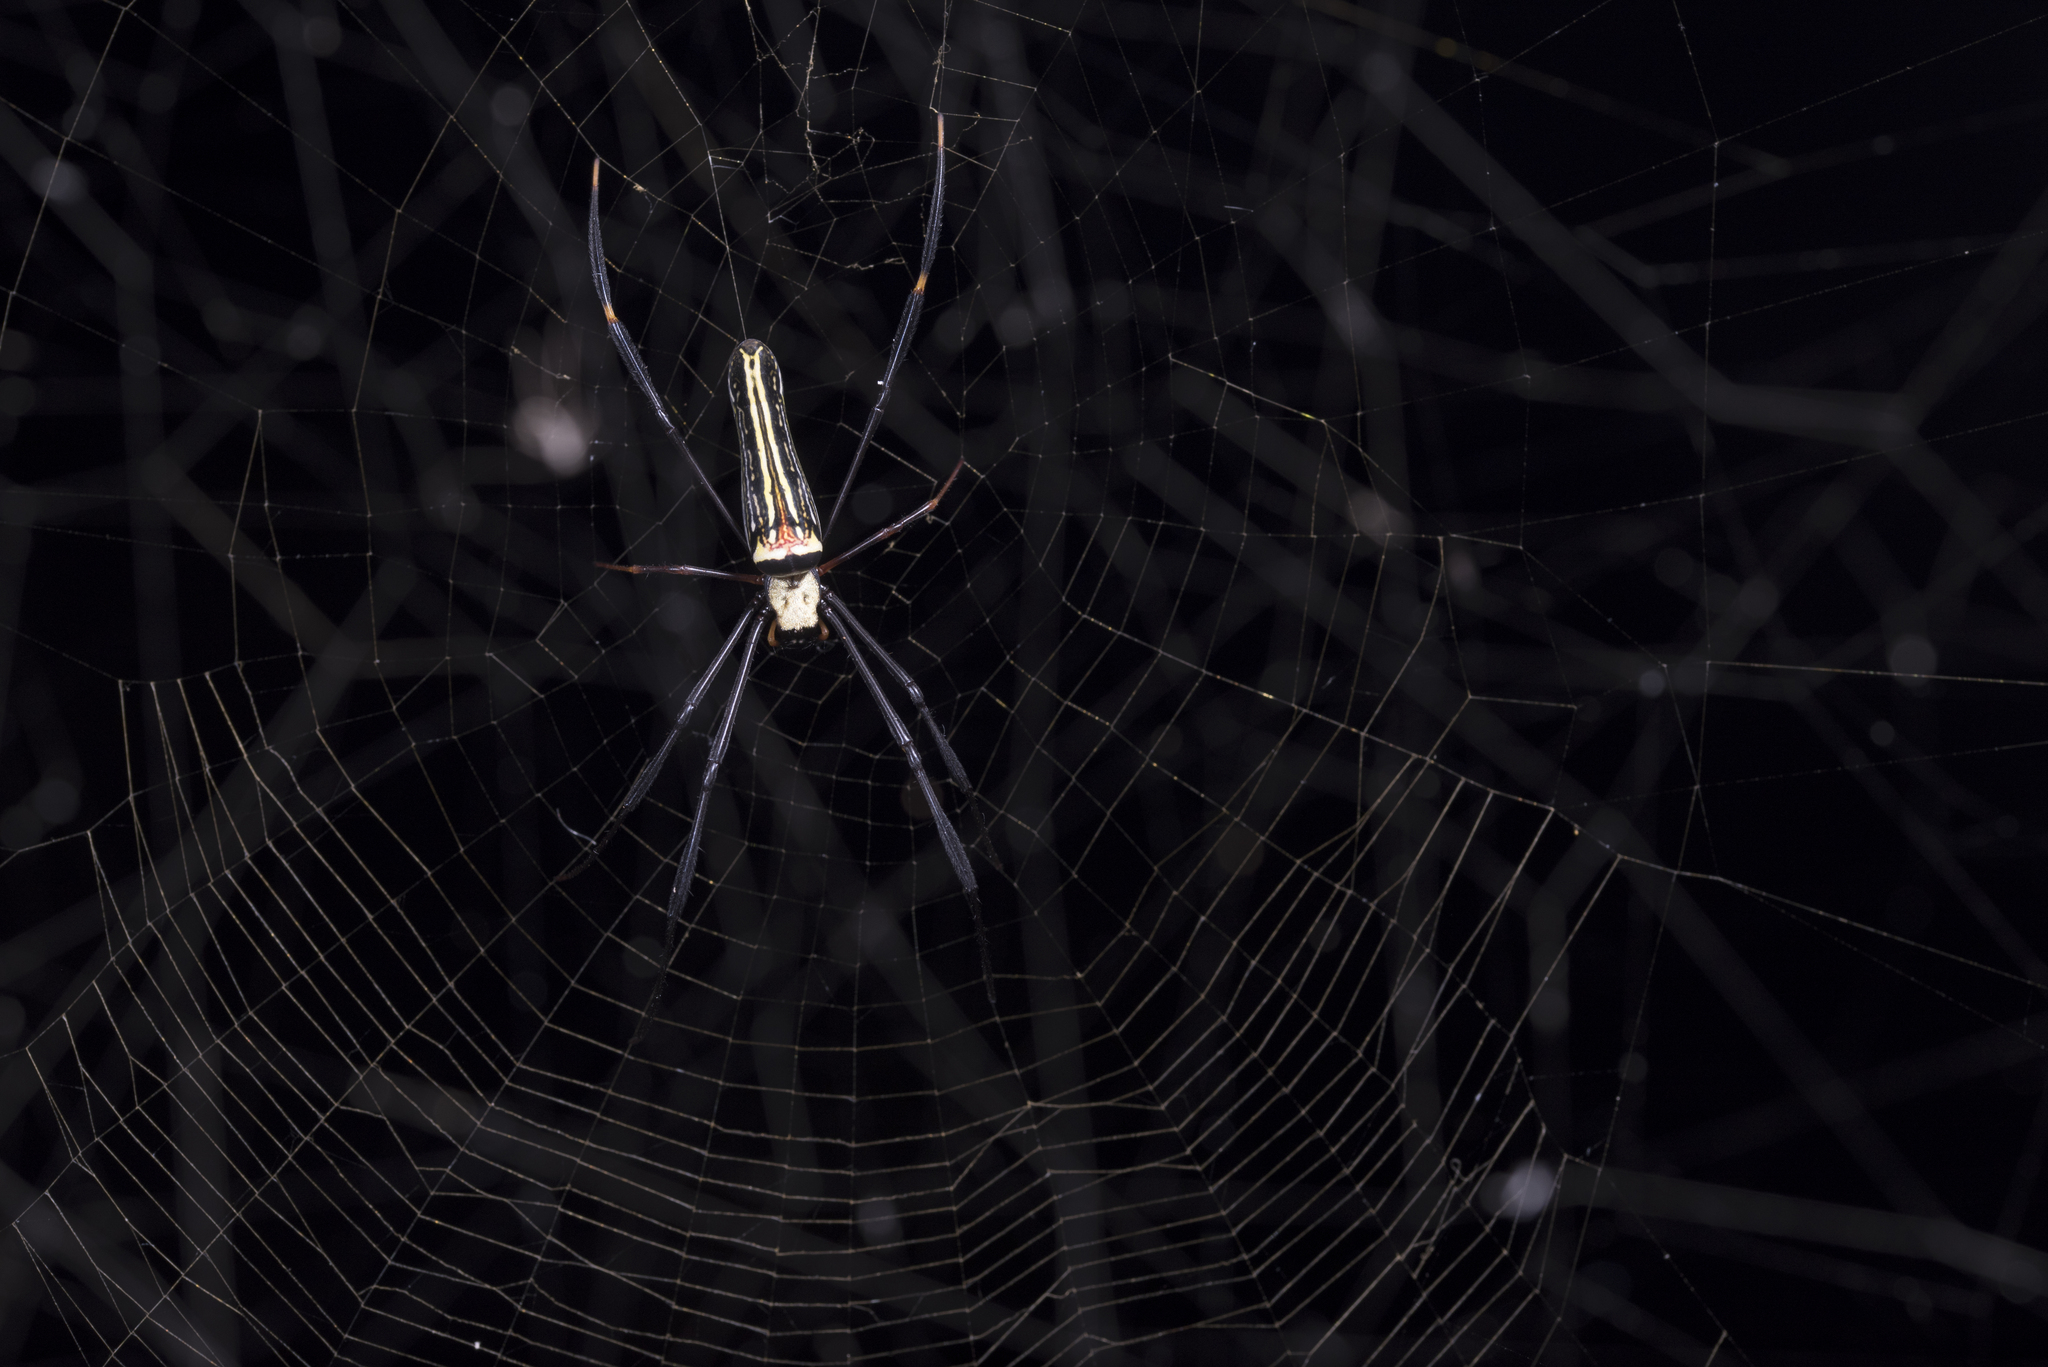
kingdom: Animalia
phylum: Arthropoda
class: Arachnida
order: Araneae
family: Araneidae
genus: Nephila
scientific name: Nephila pilipes
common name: Giant golden orb weaver
